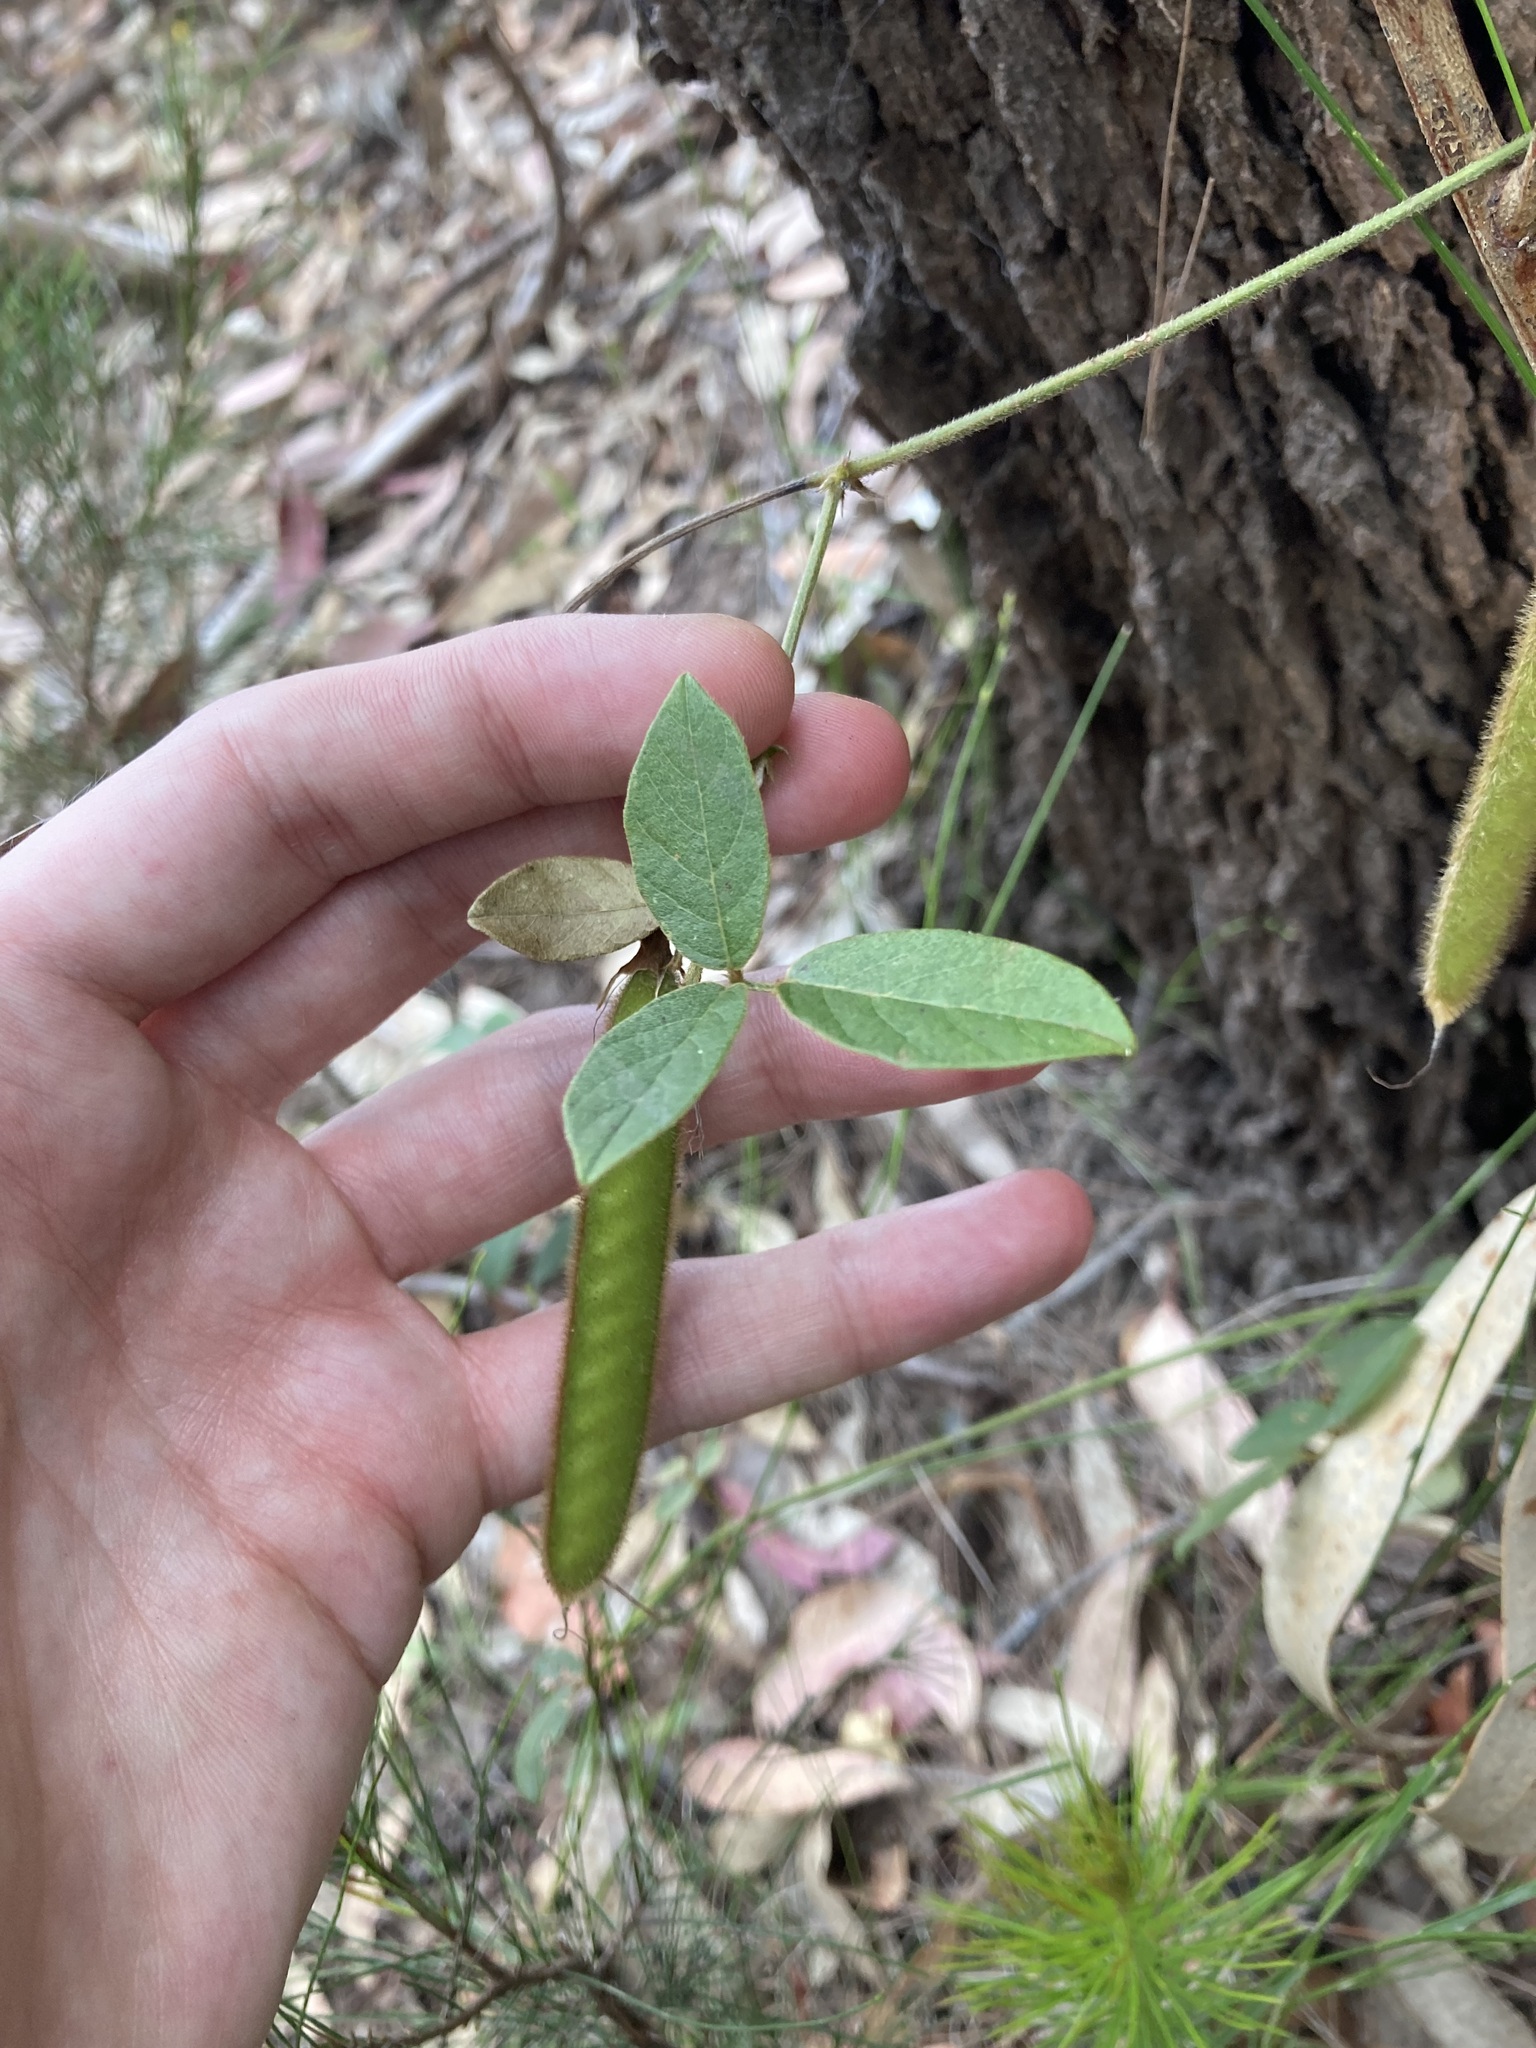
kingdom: Plantae
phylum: Tracheophyta
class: Magnoliopsida
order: Fabales
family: Fabaceae
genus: Kennedia
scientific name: Kennedia rubicunda
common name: Red kennedy-pea
